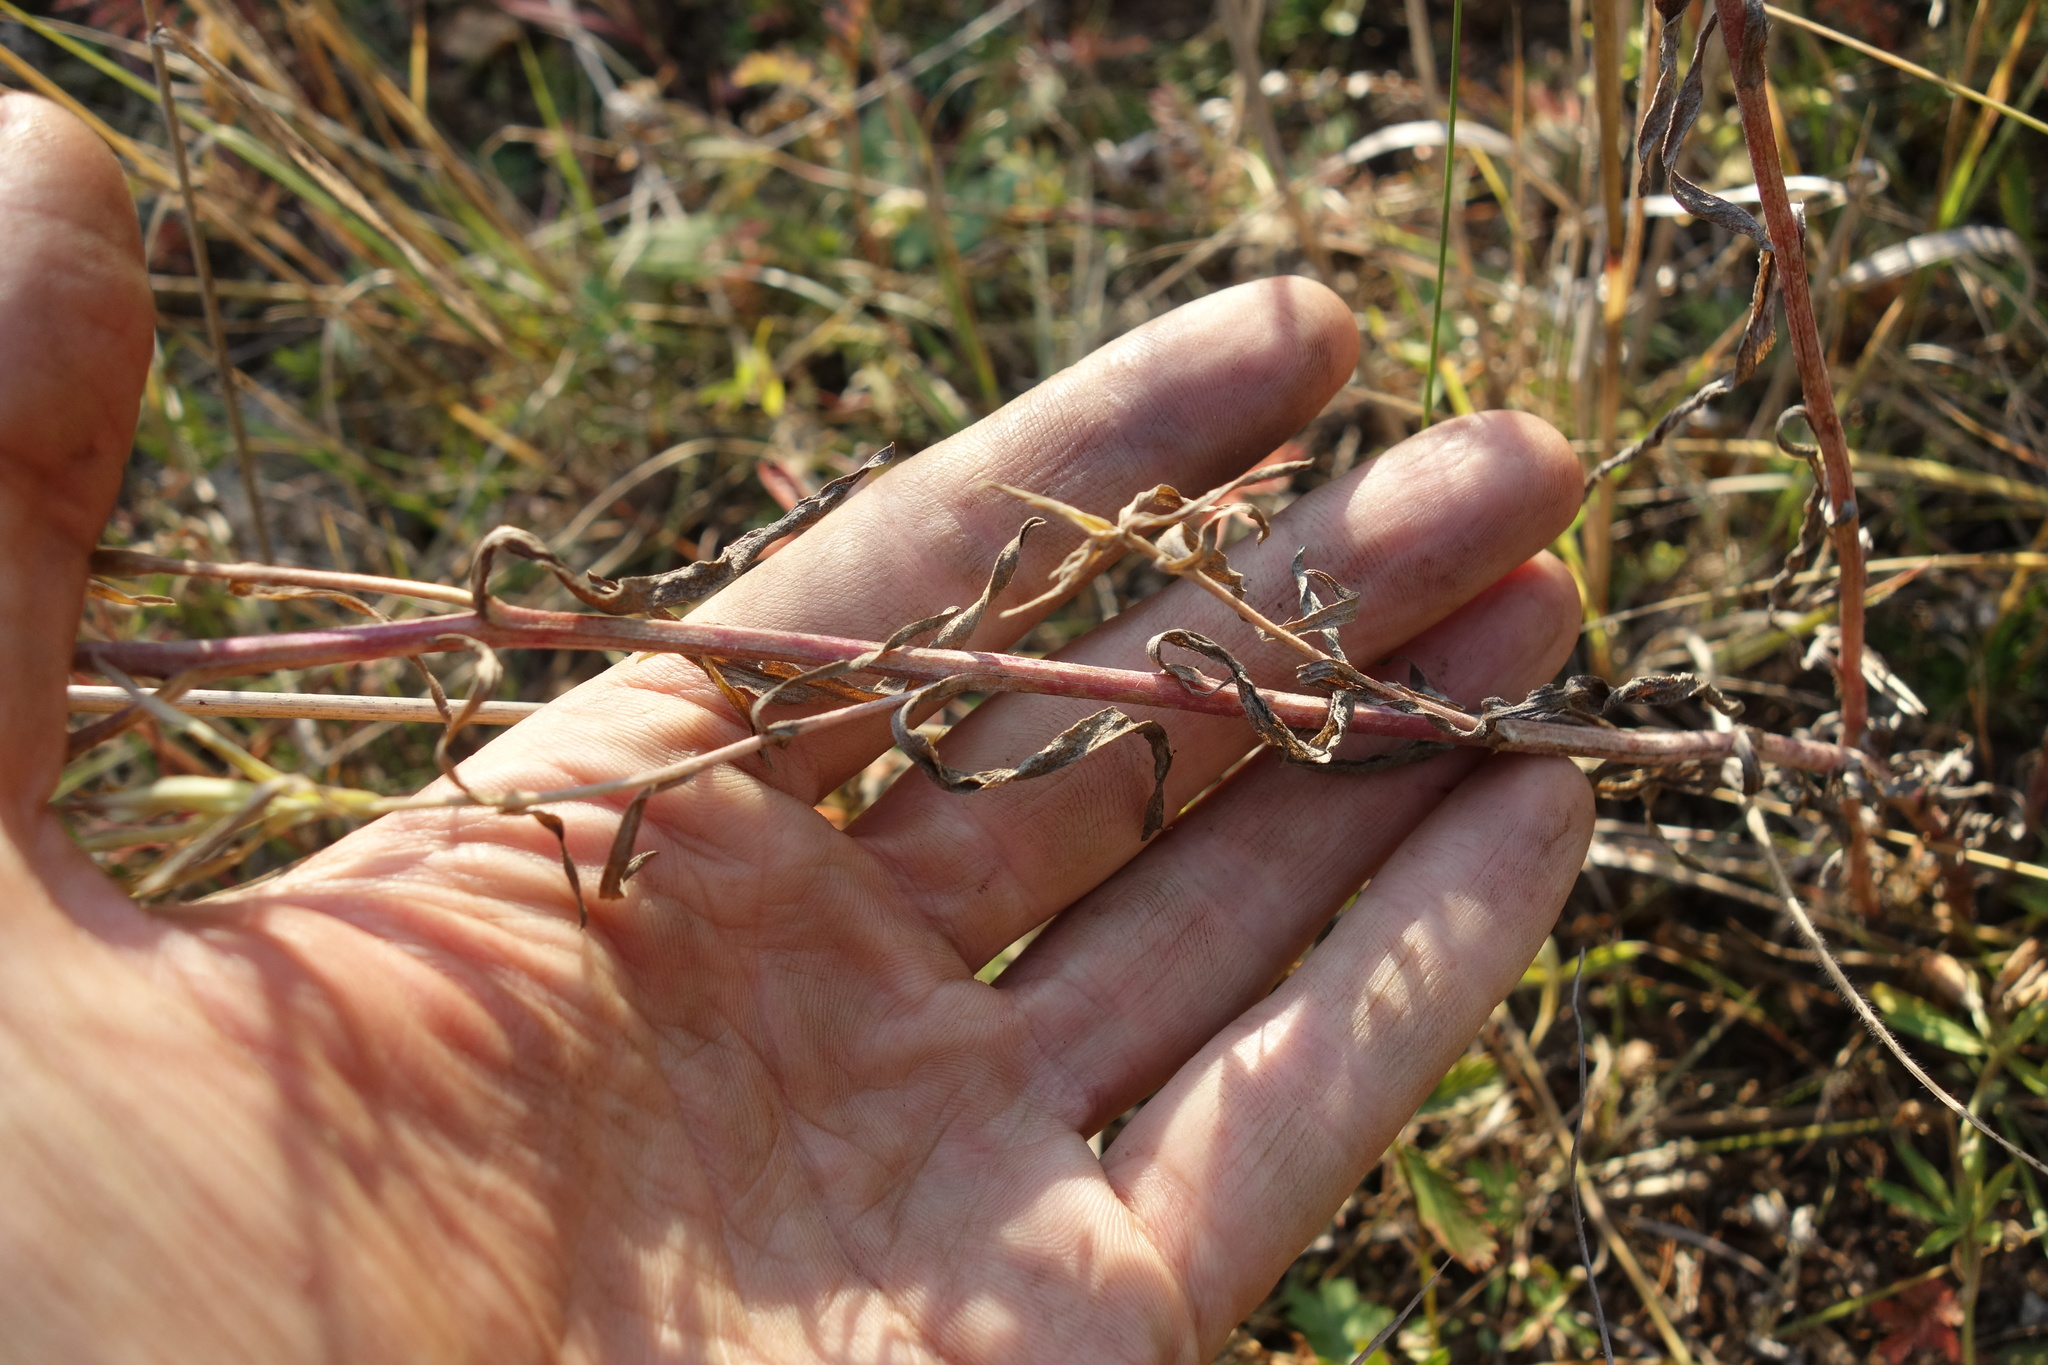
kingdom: Plantae
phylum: Tracheophyta
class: Magnoliopsida
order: Asterales
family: Asteraceae
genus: Aster
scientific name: Aster biennis
